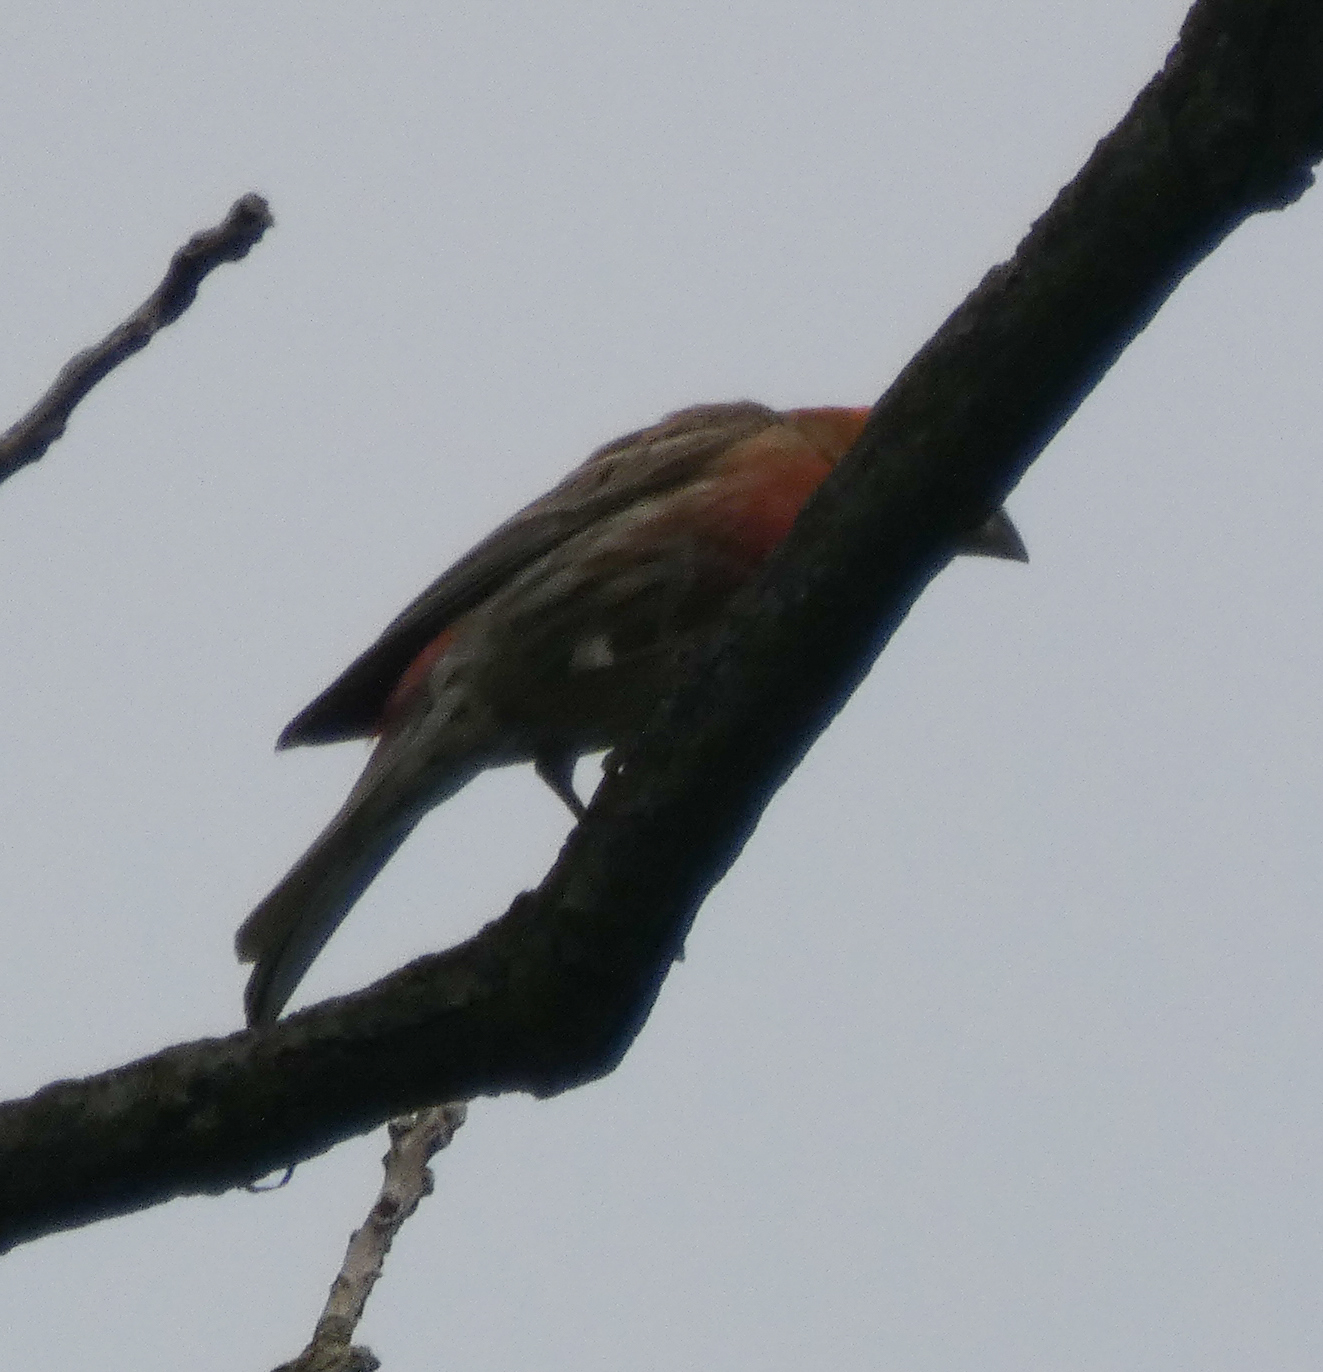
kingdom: Animalia
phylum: Chordata
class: Aves
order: Passeriformes
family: Fringillidae
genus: Haemorhous
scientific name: Haemorhous mexicanus
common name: House finch
